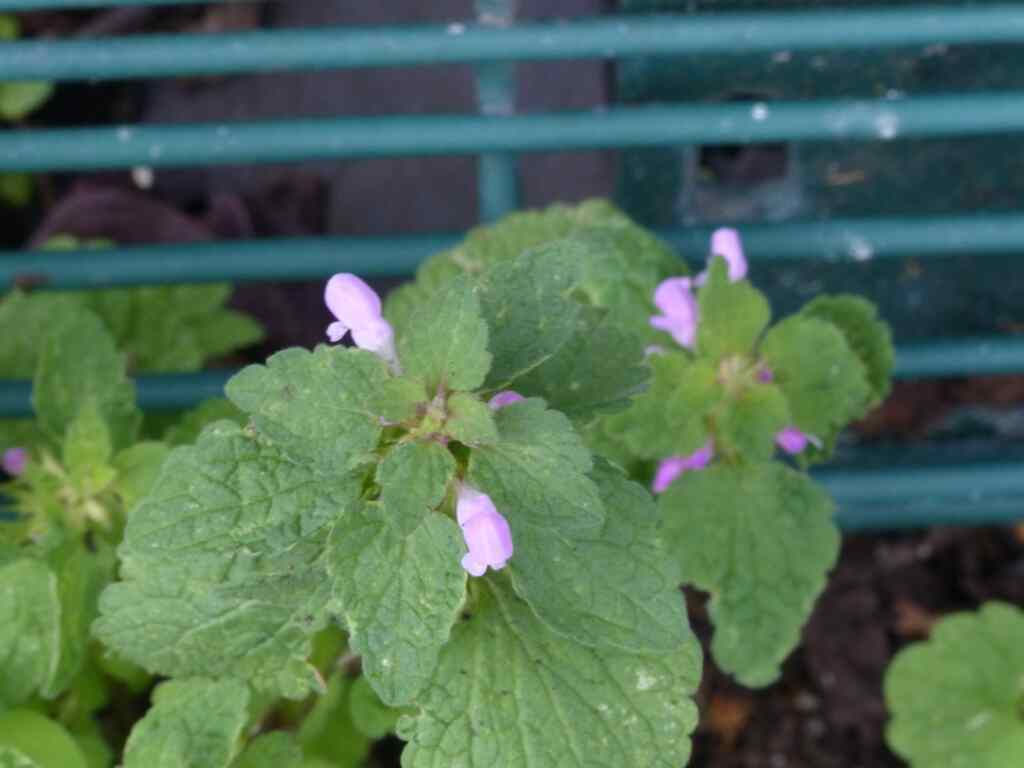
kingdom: Plantae
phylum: Tracheophyta
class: Magnoliopsida
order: Lamiales
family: Lamiaceae
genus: Lamium
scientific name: Lamium purpureum
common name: Red dead-nettle
